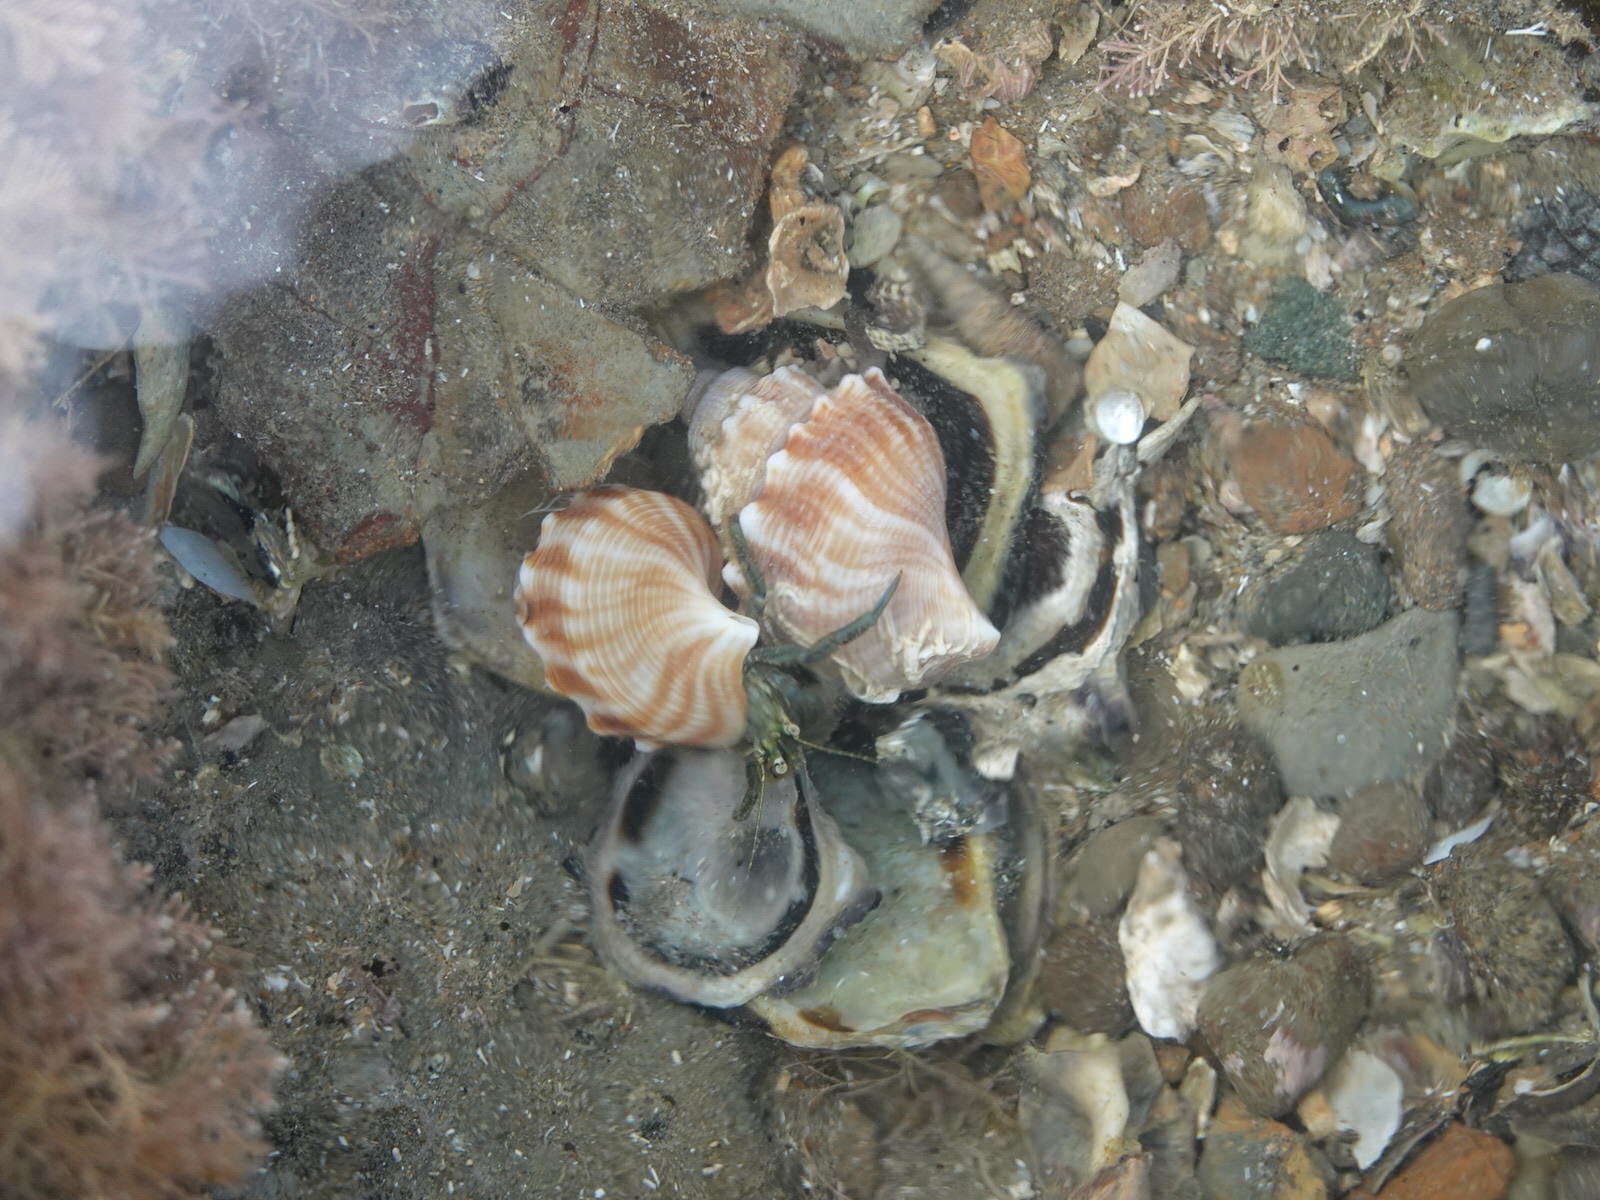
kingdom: Animalia
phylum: Arthropoda
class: Malacostraca
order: Decapoda
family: Paguridae
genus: Pagurus
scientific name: Pagurus novizealandiae
